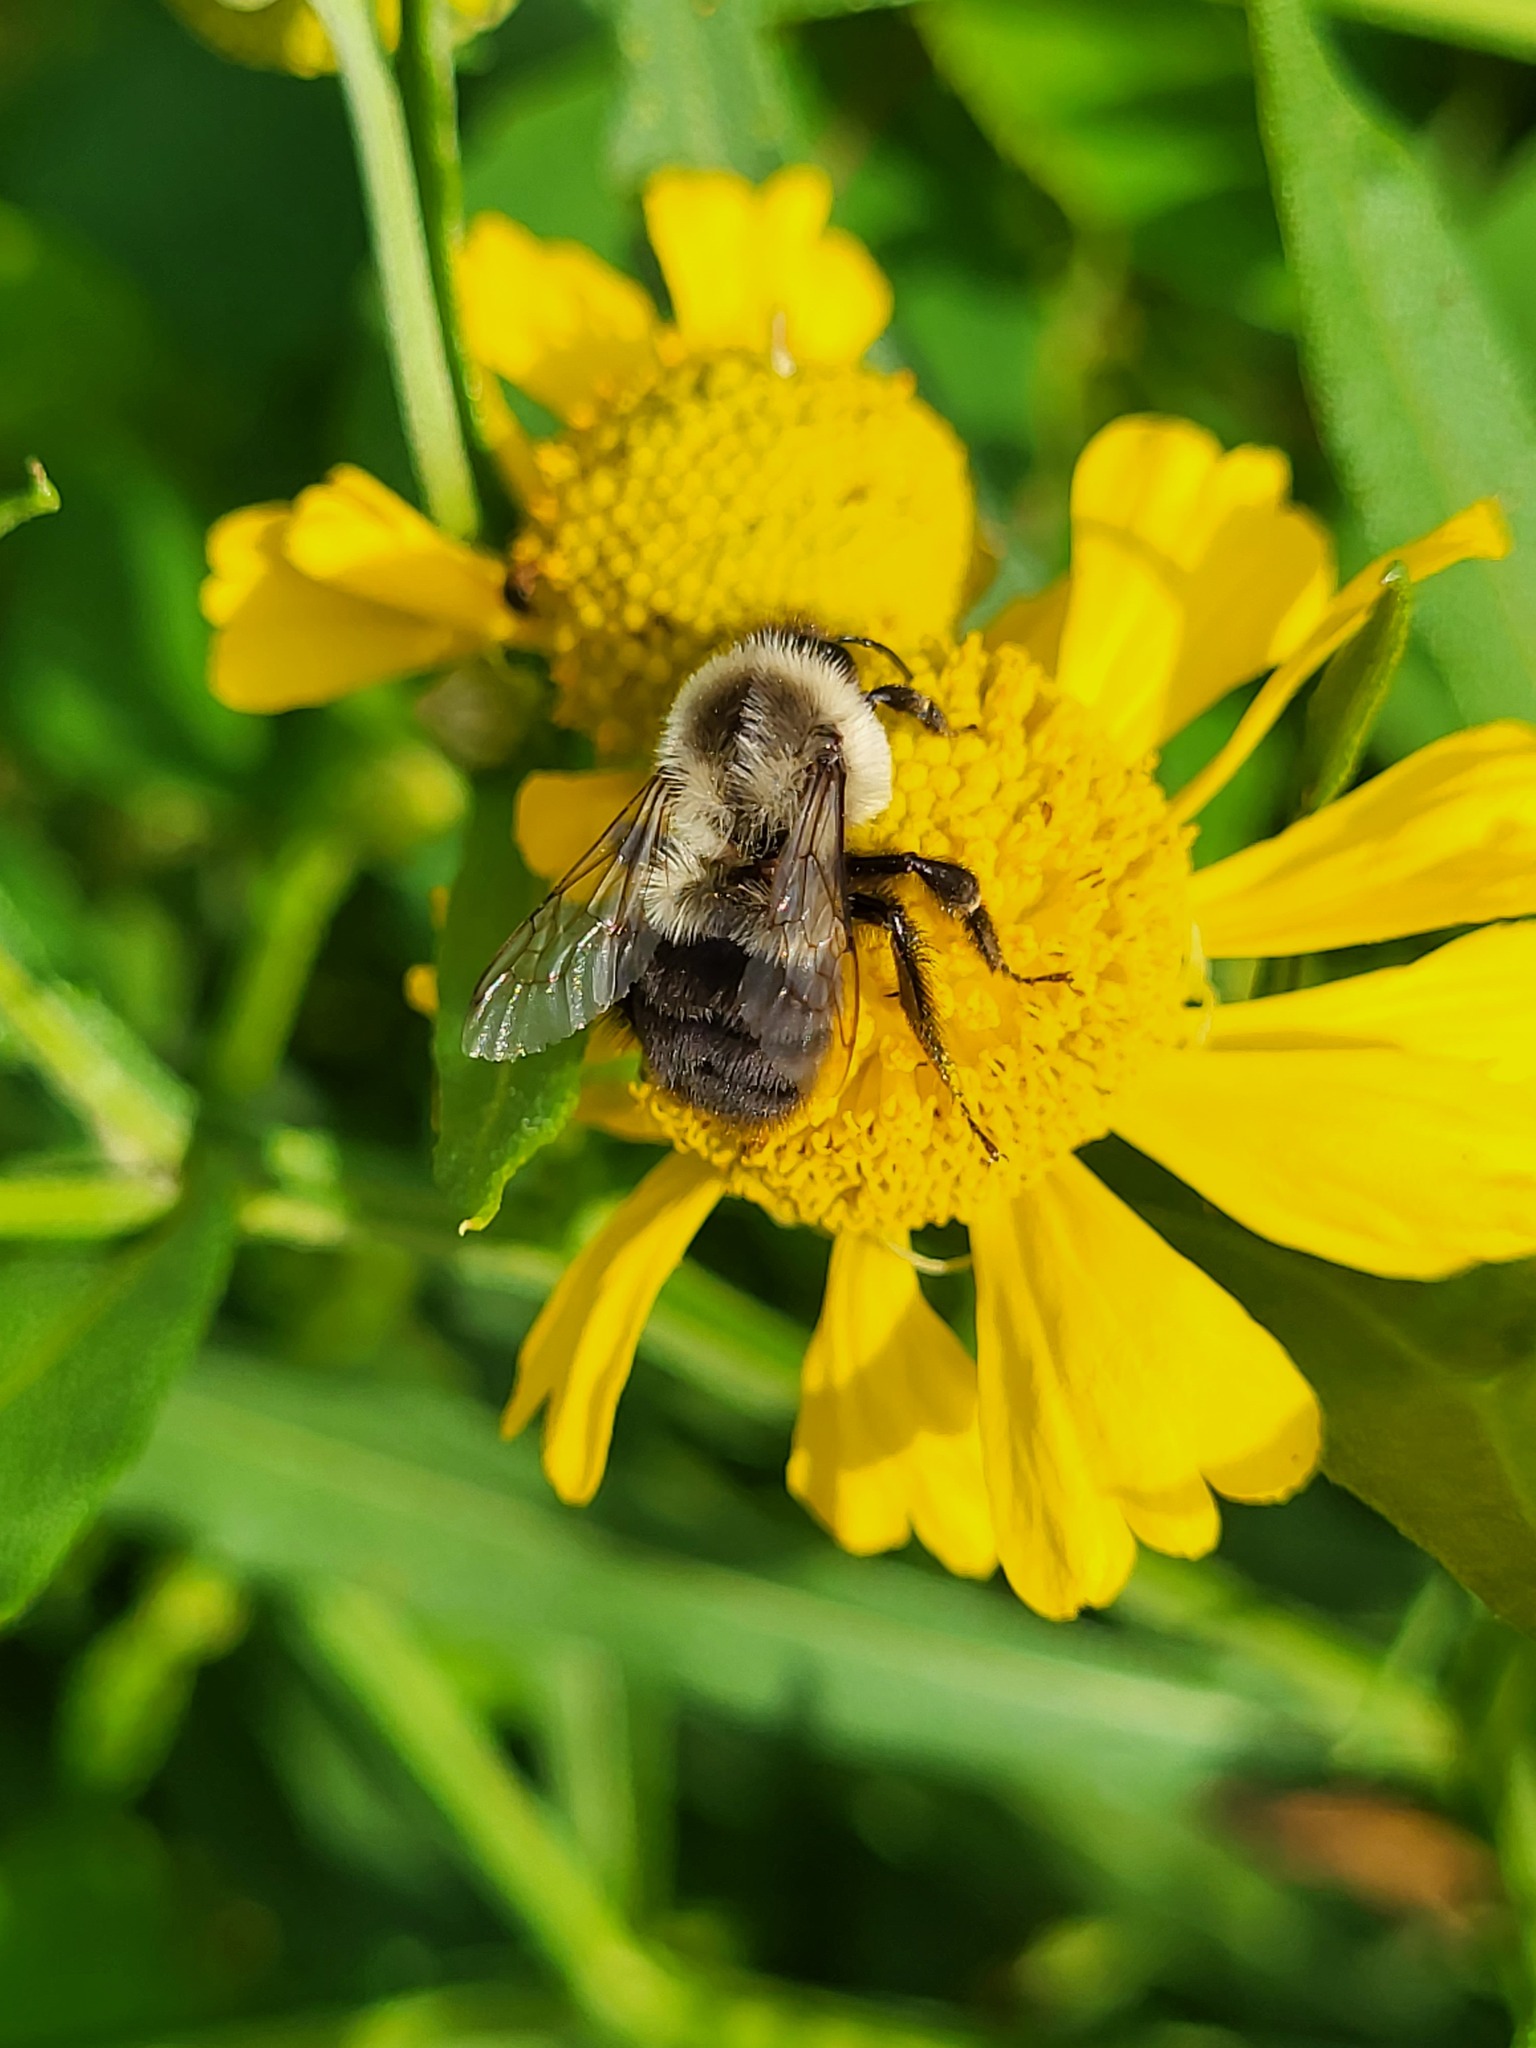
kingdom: Animalia
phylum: Arthropoda
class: Insecta
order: Hymenoptera
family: Apidae
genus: Bombus
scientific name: Bombus impatiens
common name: Common eastern bumble bee
